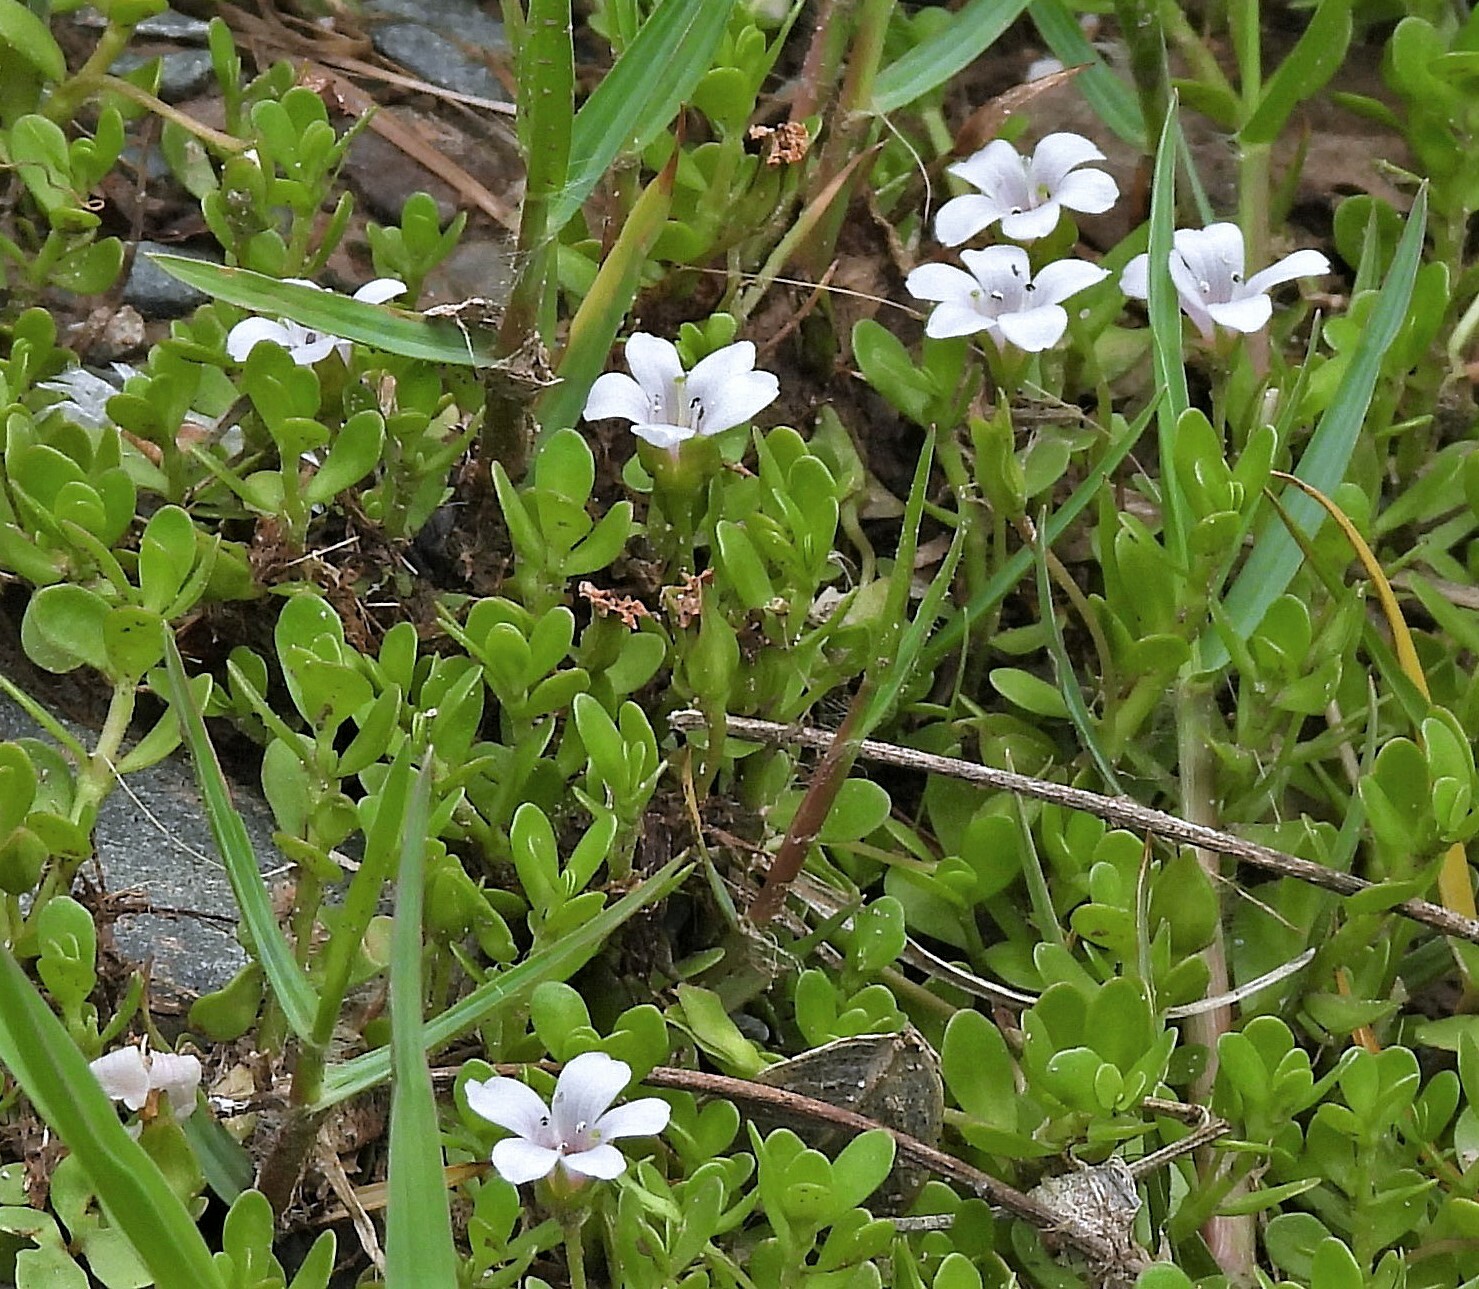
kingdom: Plantae
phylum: Tracheophyta
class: Magnoliopsida
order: Lamiales
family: Plantaginaceae
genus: Bacopa
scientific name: Bacopa monnieri
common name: Indian-pennywort
